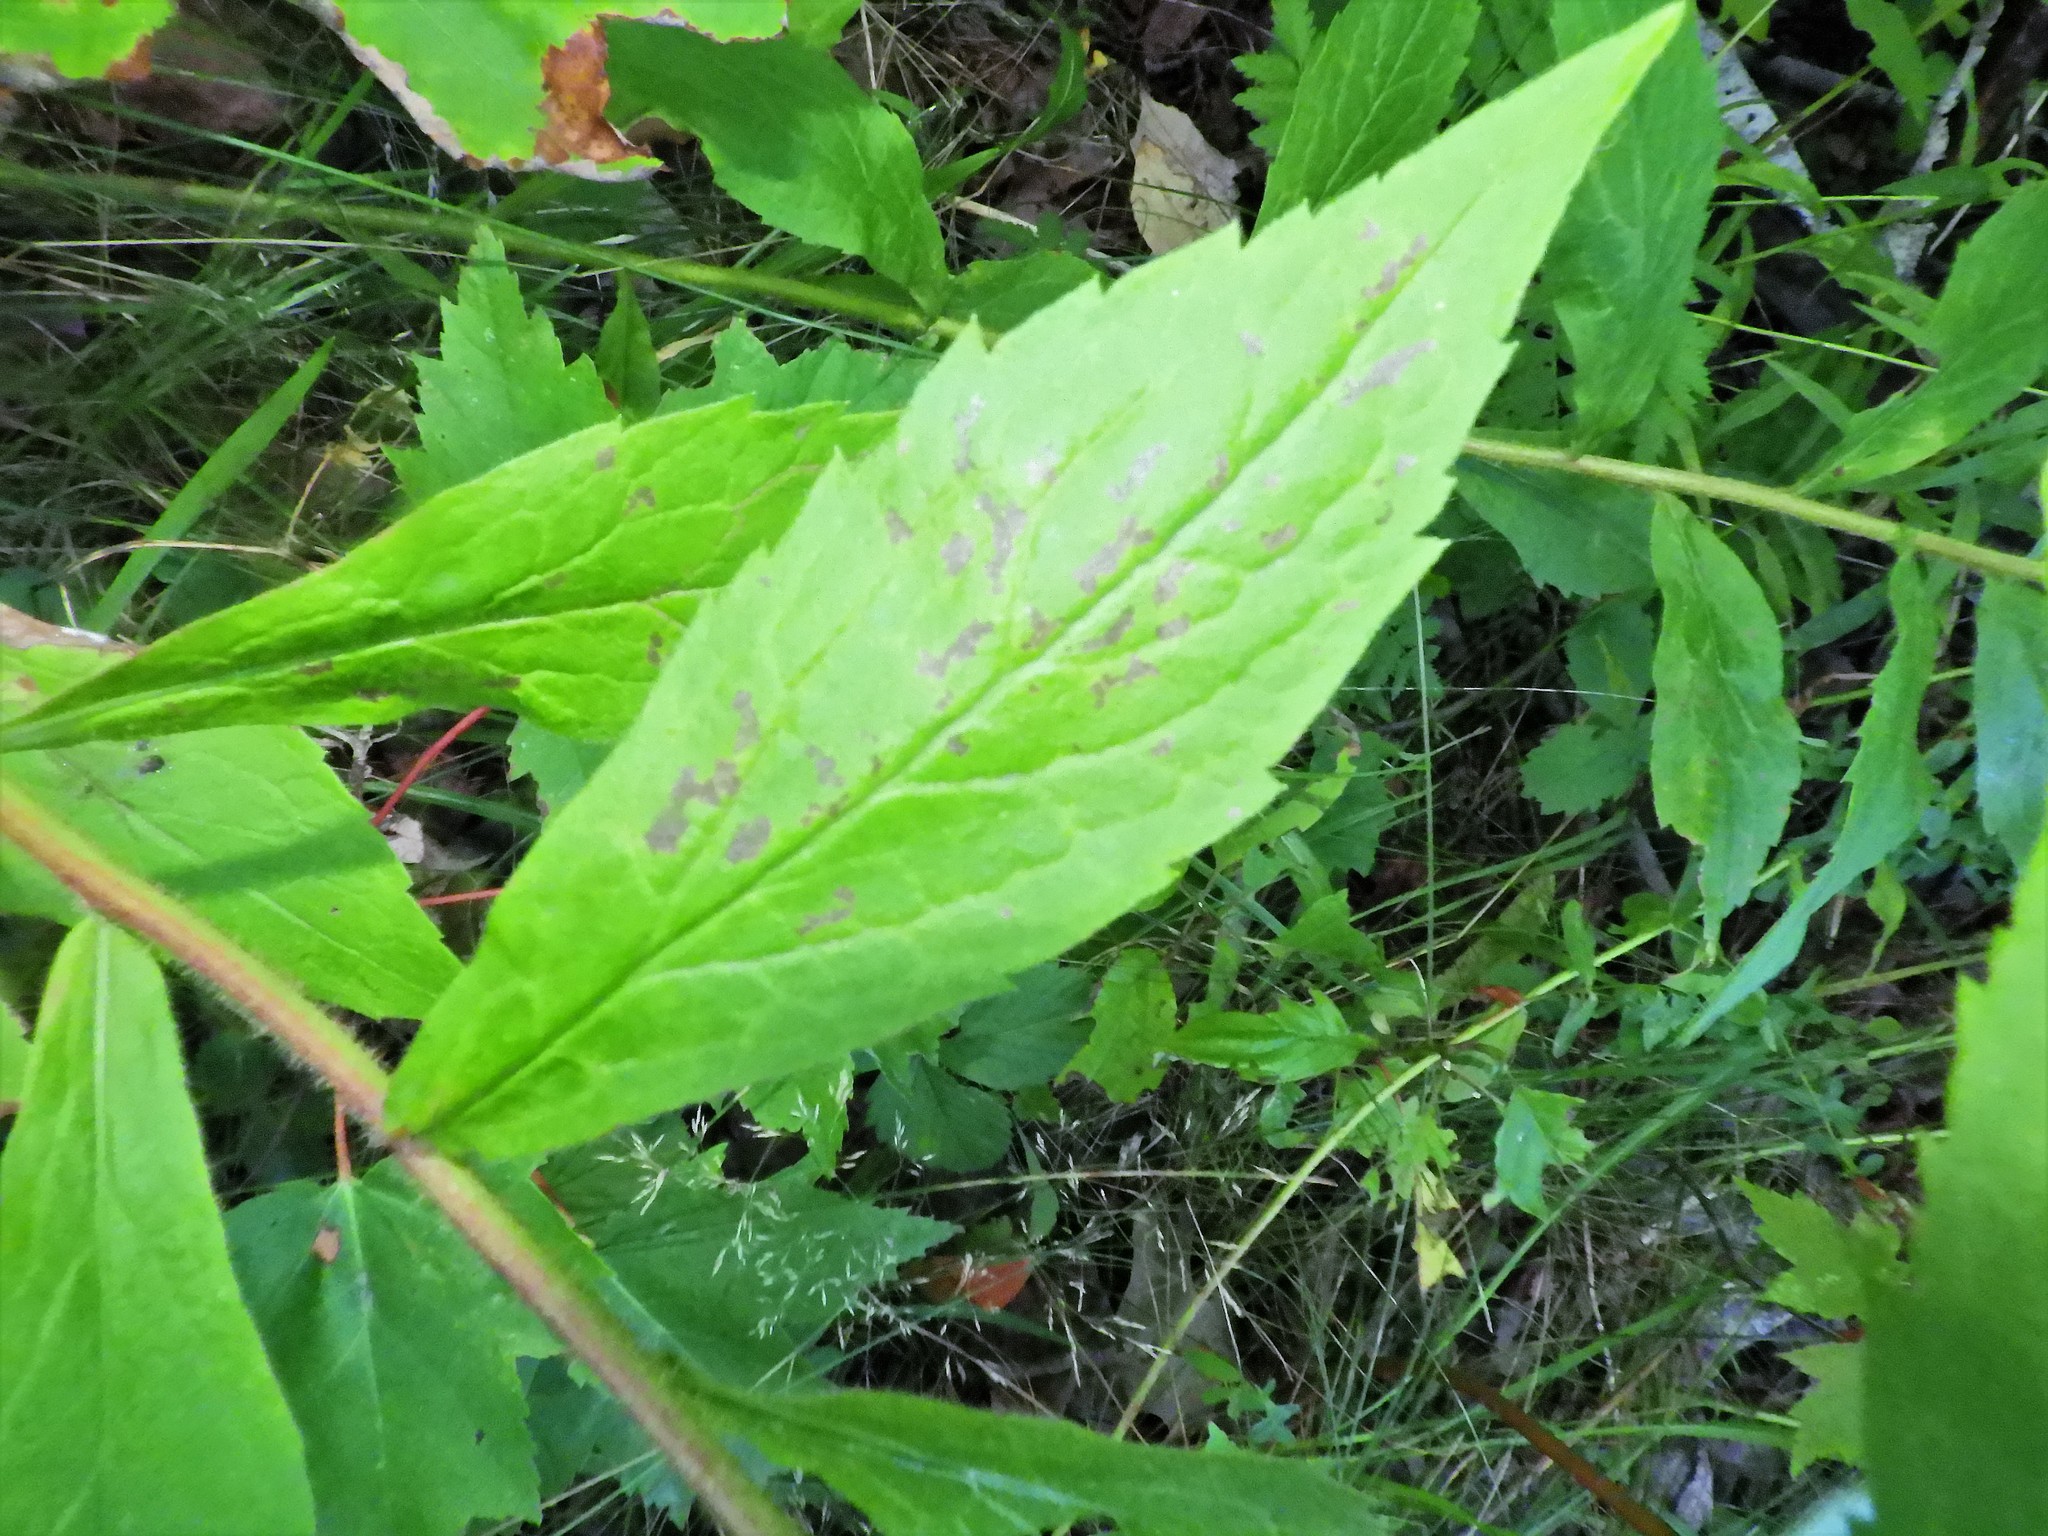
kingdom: Plantae
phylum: Tracheophyta
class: Magnoliopsida
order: Asterales
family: Asteraceae
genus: Solidago
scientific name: Solidago rugosa
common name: Rough-stemmed goldenrod
